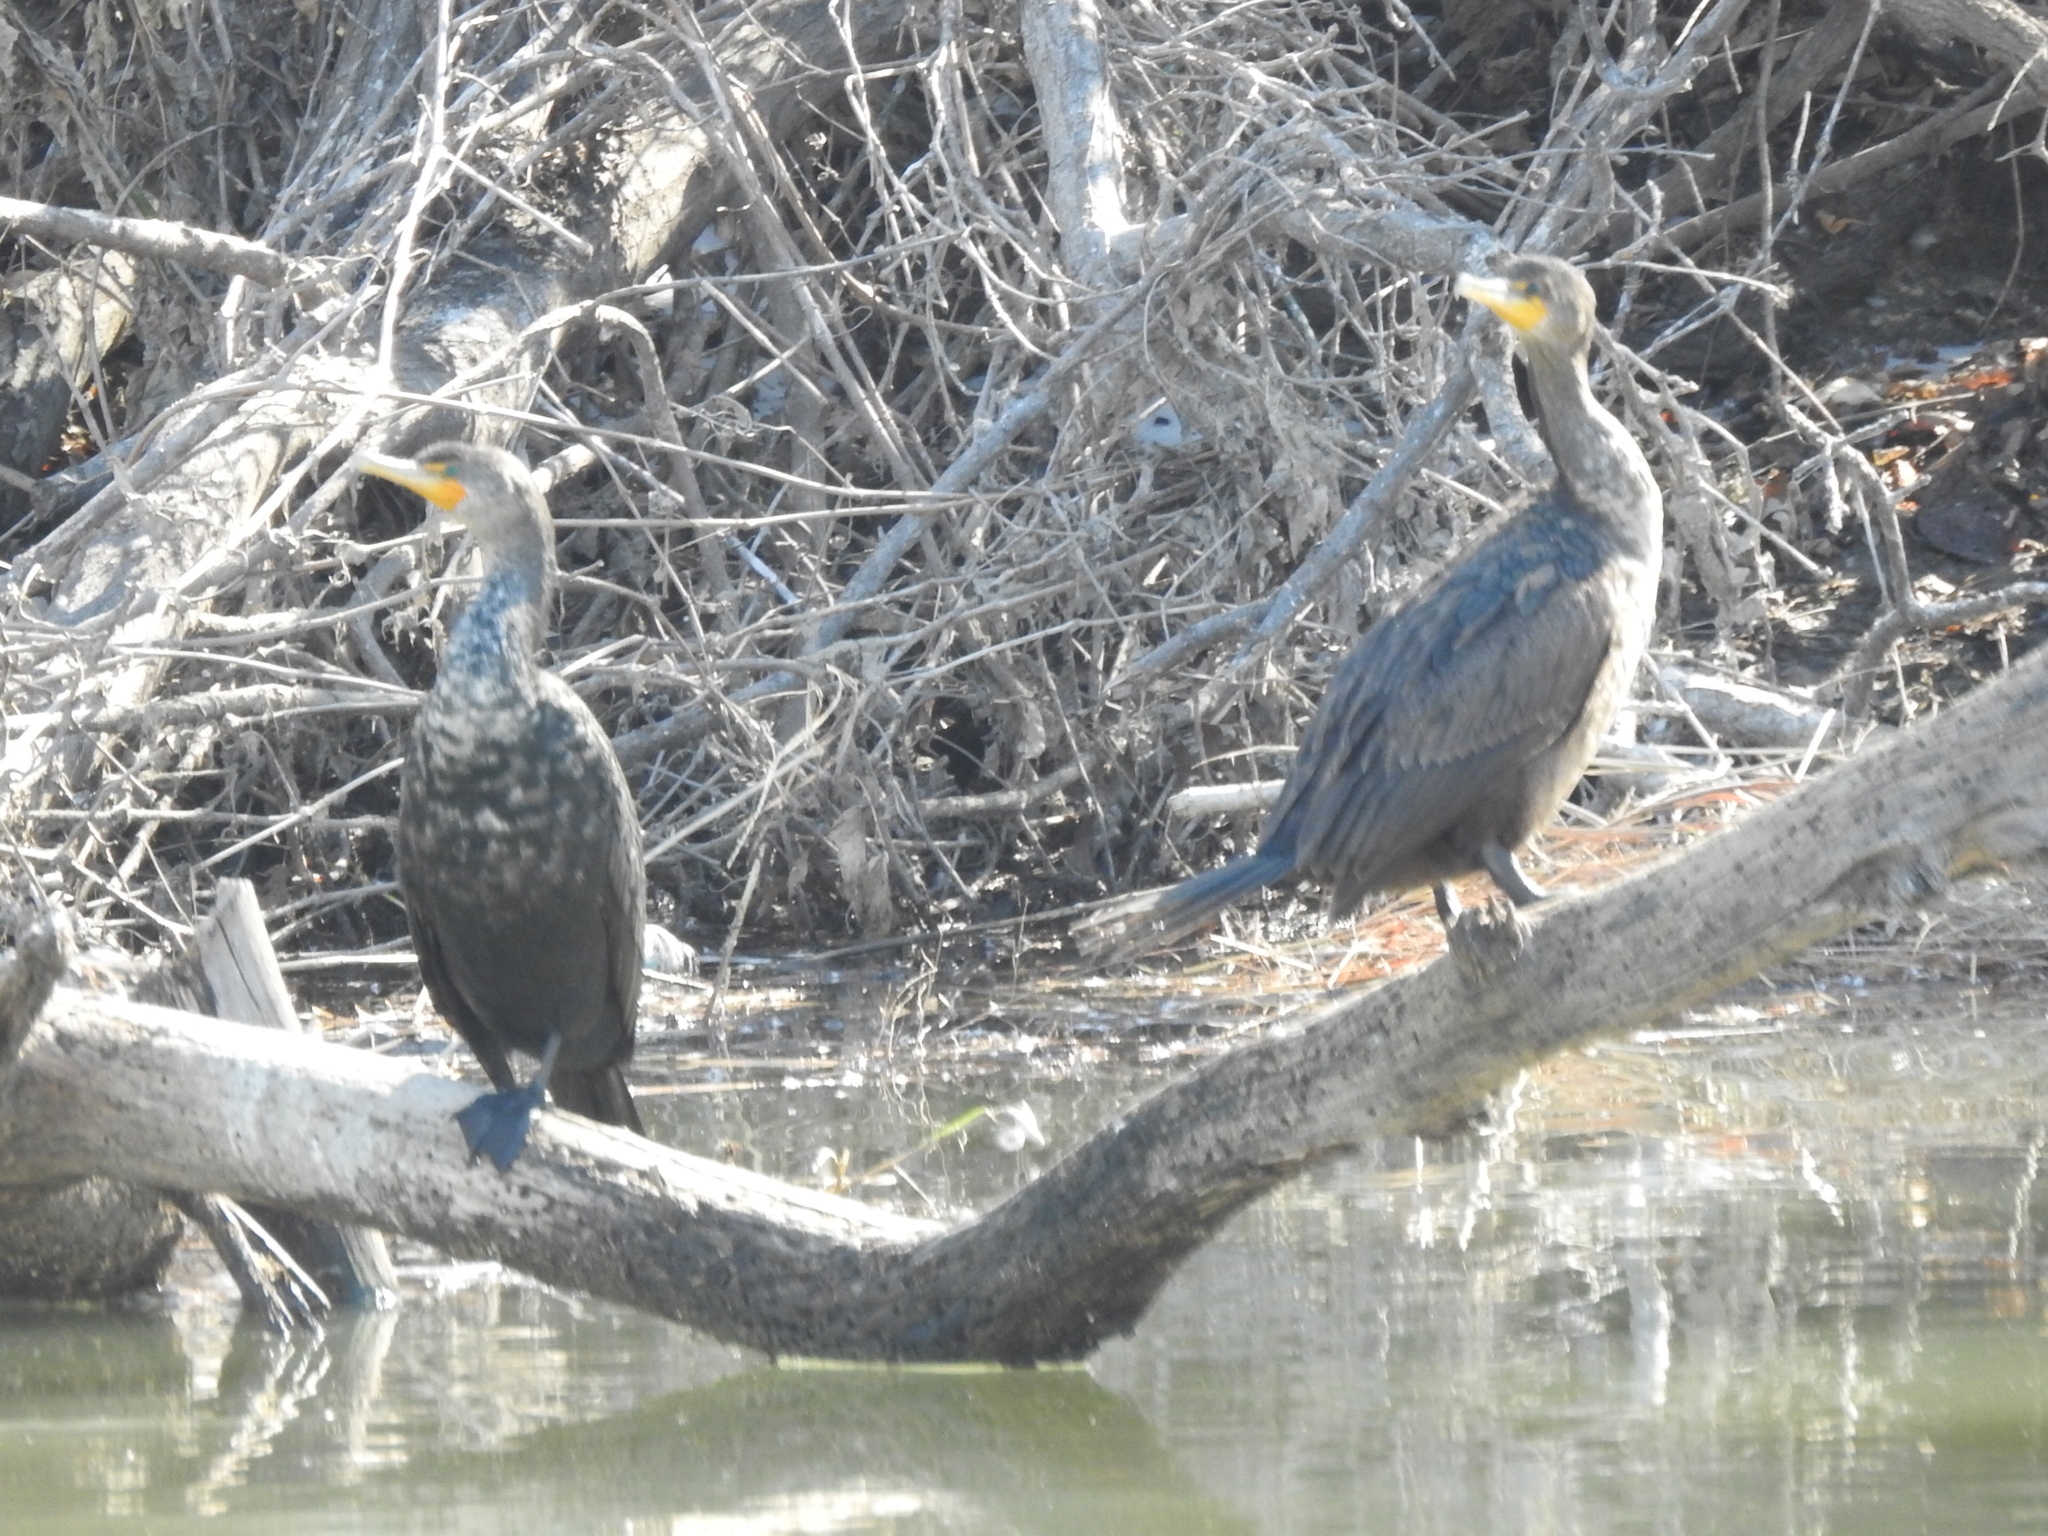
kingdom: Animalia
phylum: Chordata
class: Aves
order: Suliformes
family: Phalacrocoracidae
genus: Phalacrocorax
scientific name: Phalacrocorax auritus
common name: Double-crested cormorant
